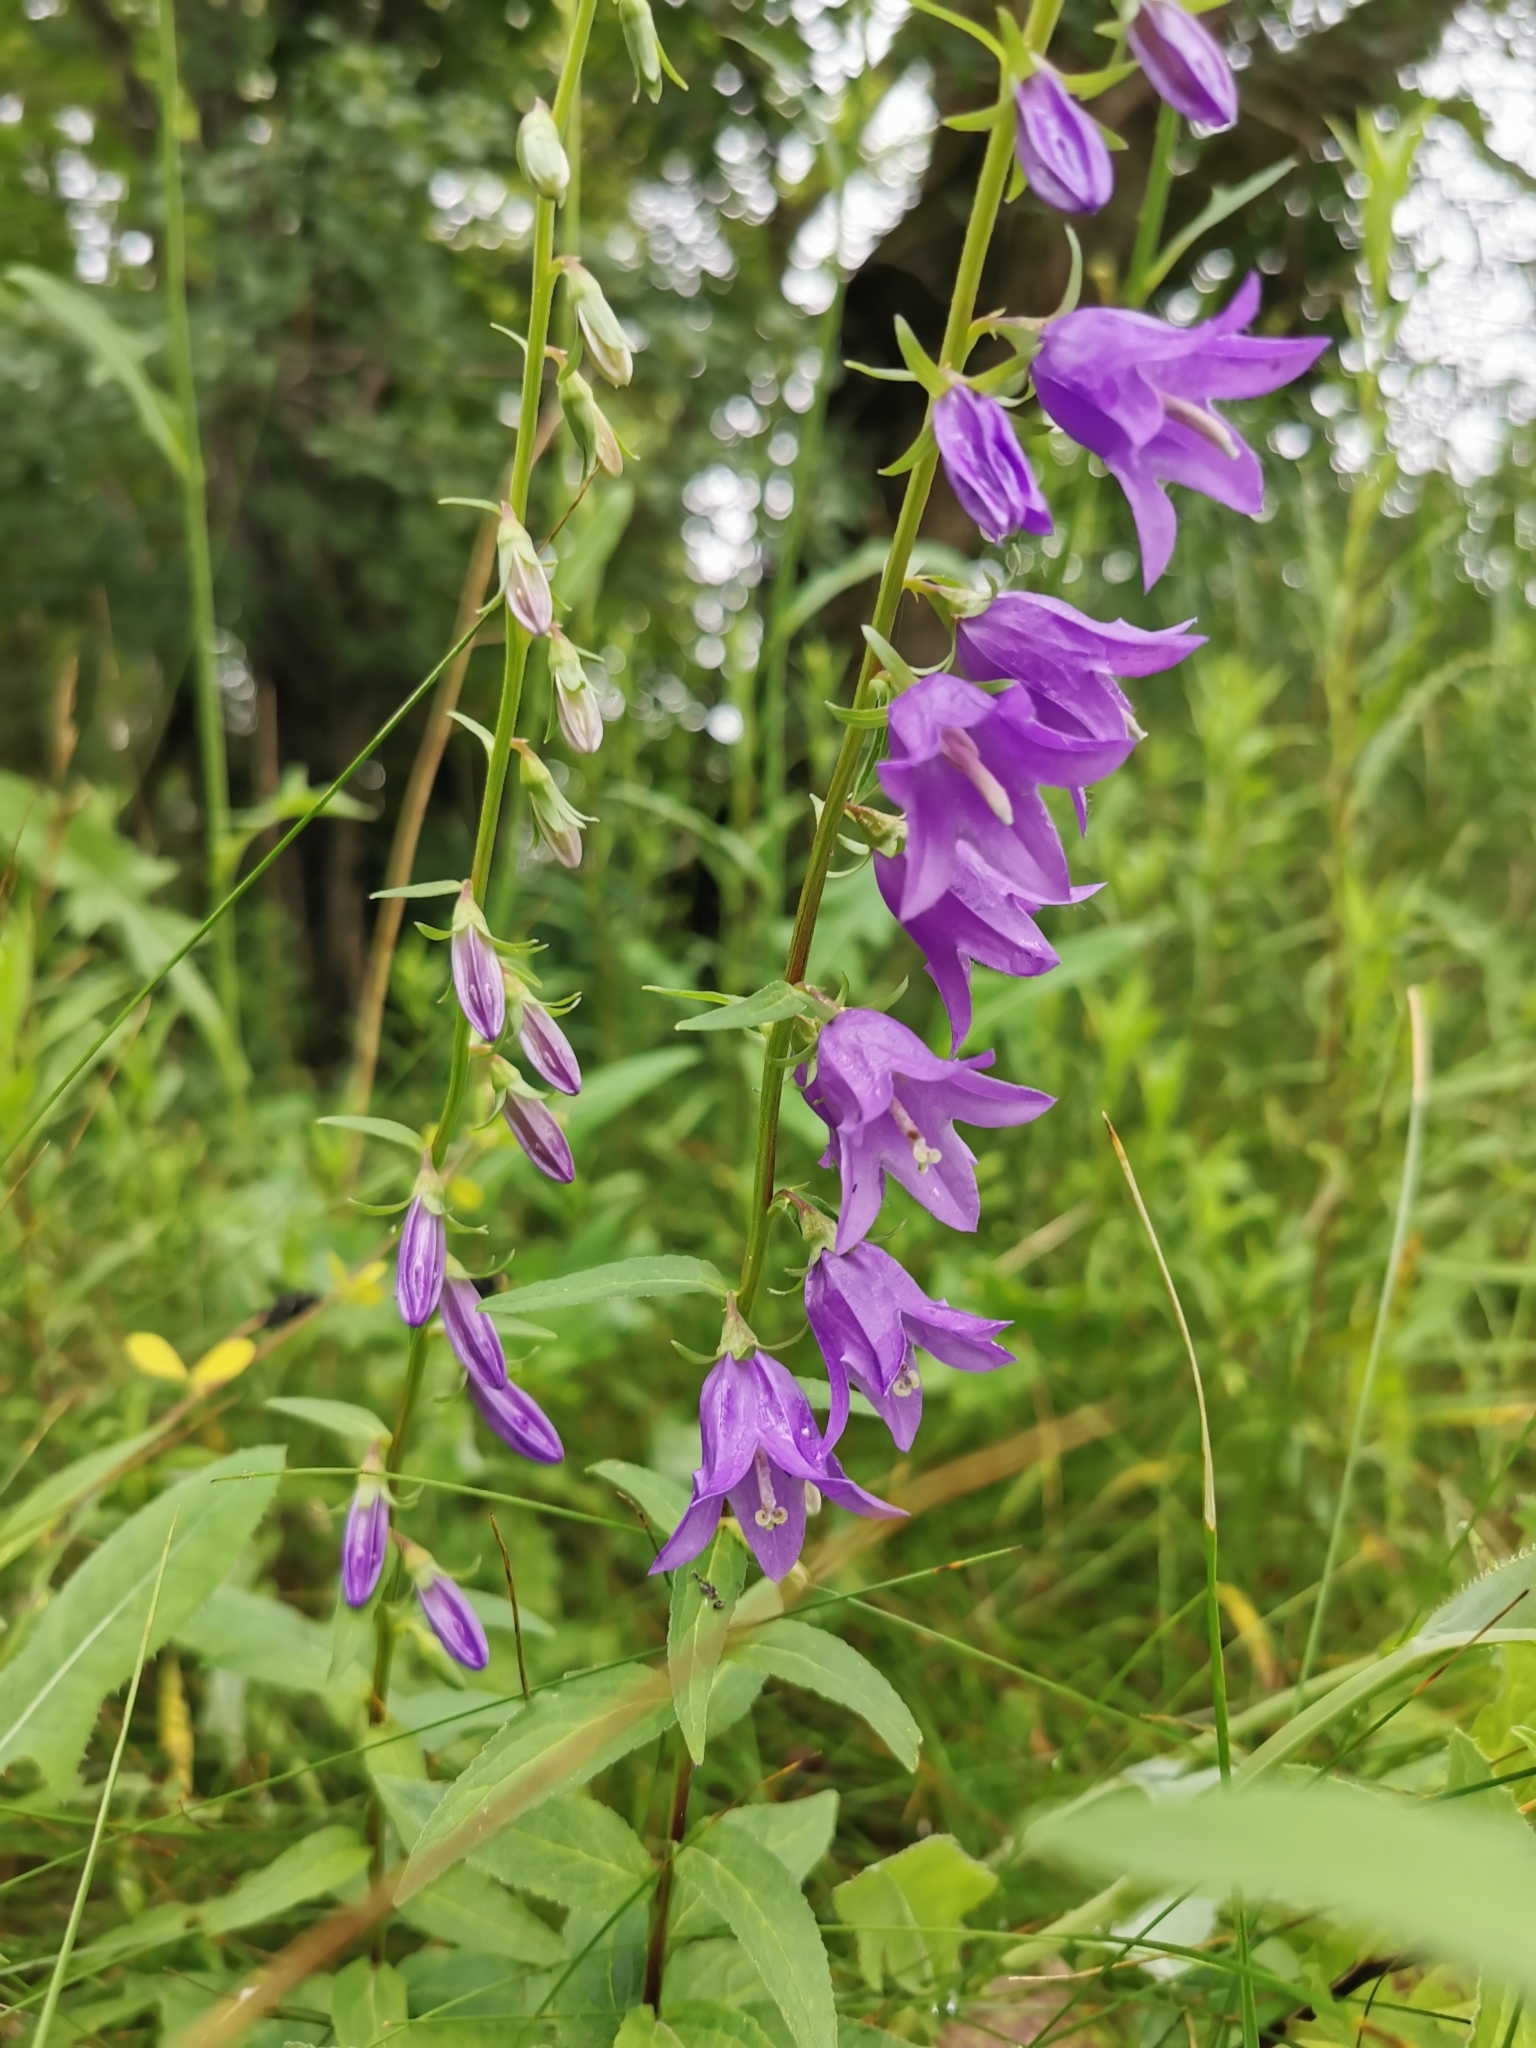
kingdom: Plantae
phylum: Tracheophyta
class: Magnoliopsida
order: Asterales
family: Campanulaceae
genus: Campanula
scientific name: Campanula rapunculoides
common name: Creeping bellflower
